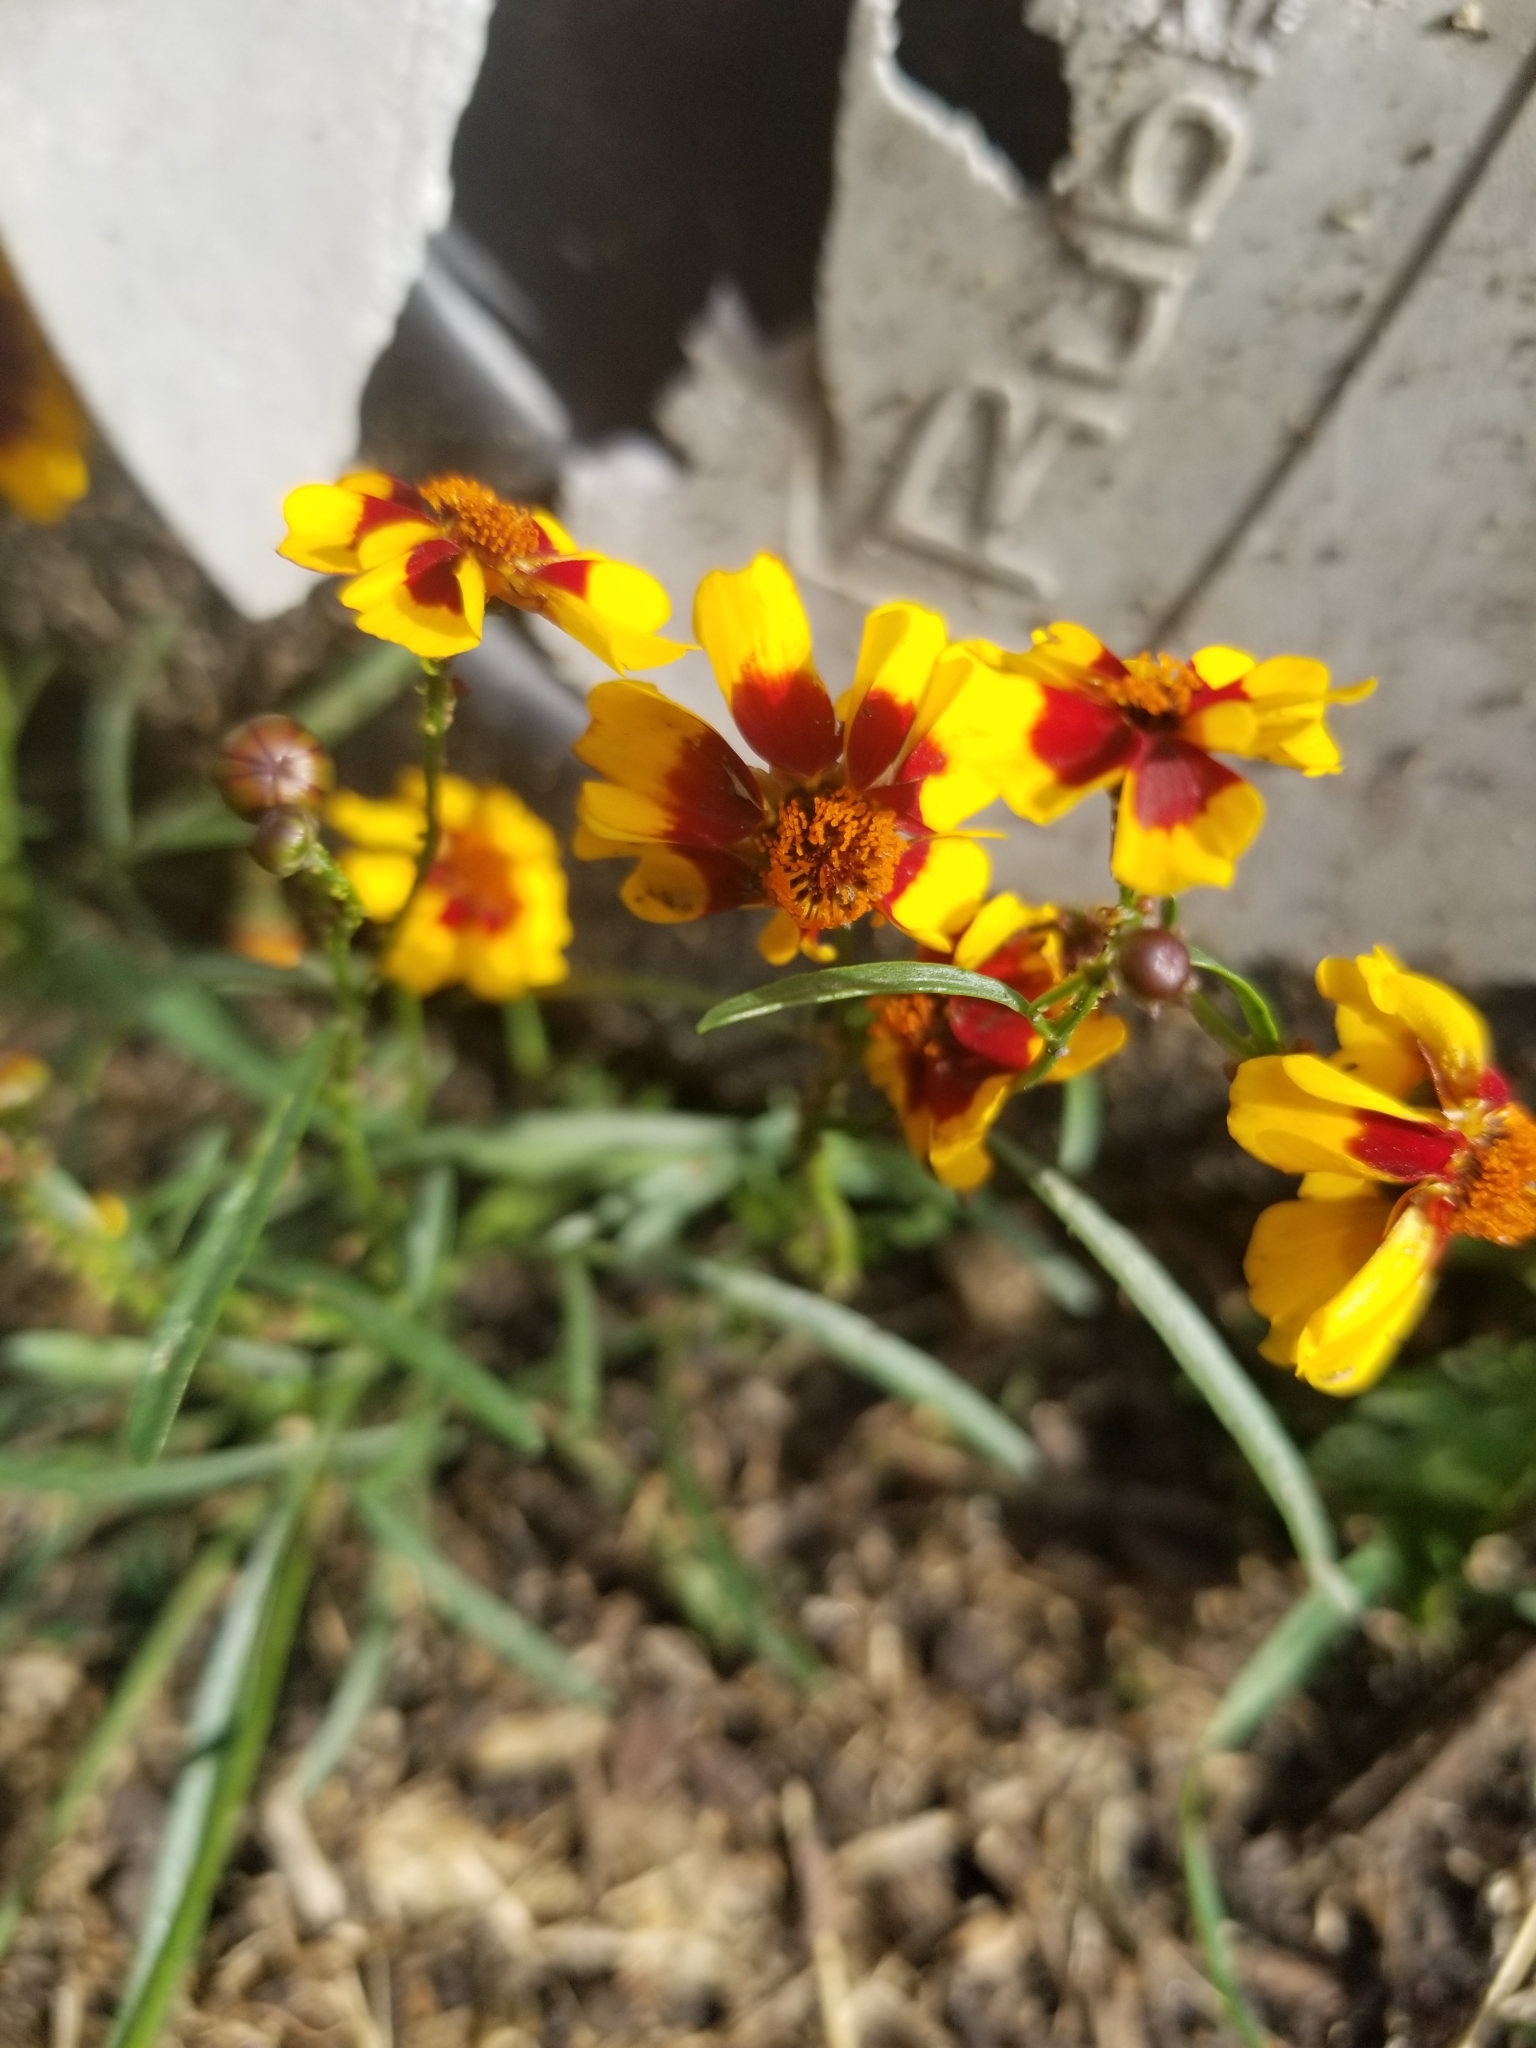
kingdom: Plantae
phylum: Tracheophyta
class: Magnoliopsida
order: Asterales
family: Asteraceae
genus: Coreopsis
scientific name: Coreopsis tinctoria
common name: Garden tickseed
